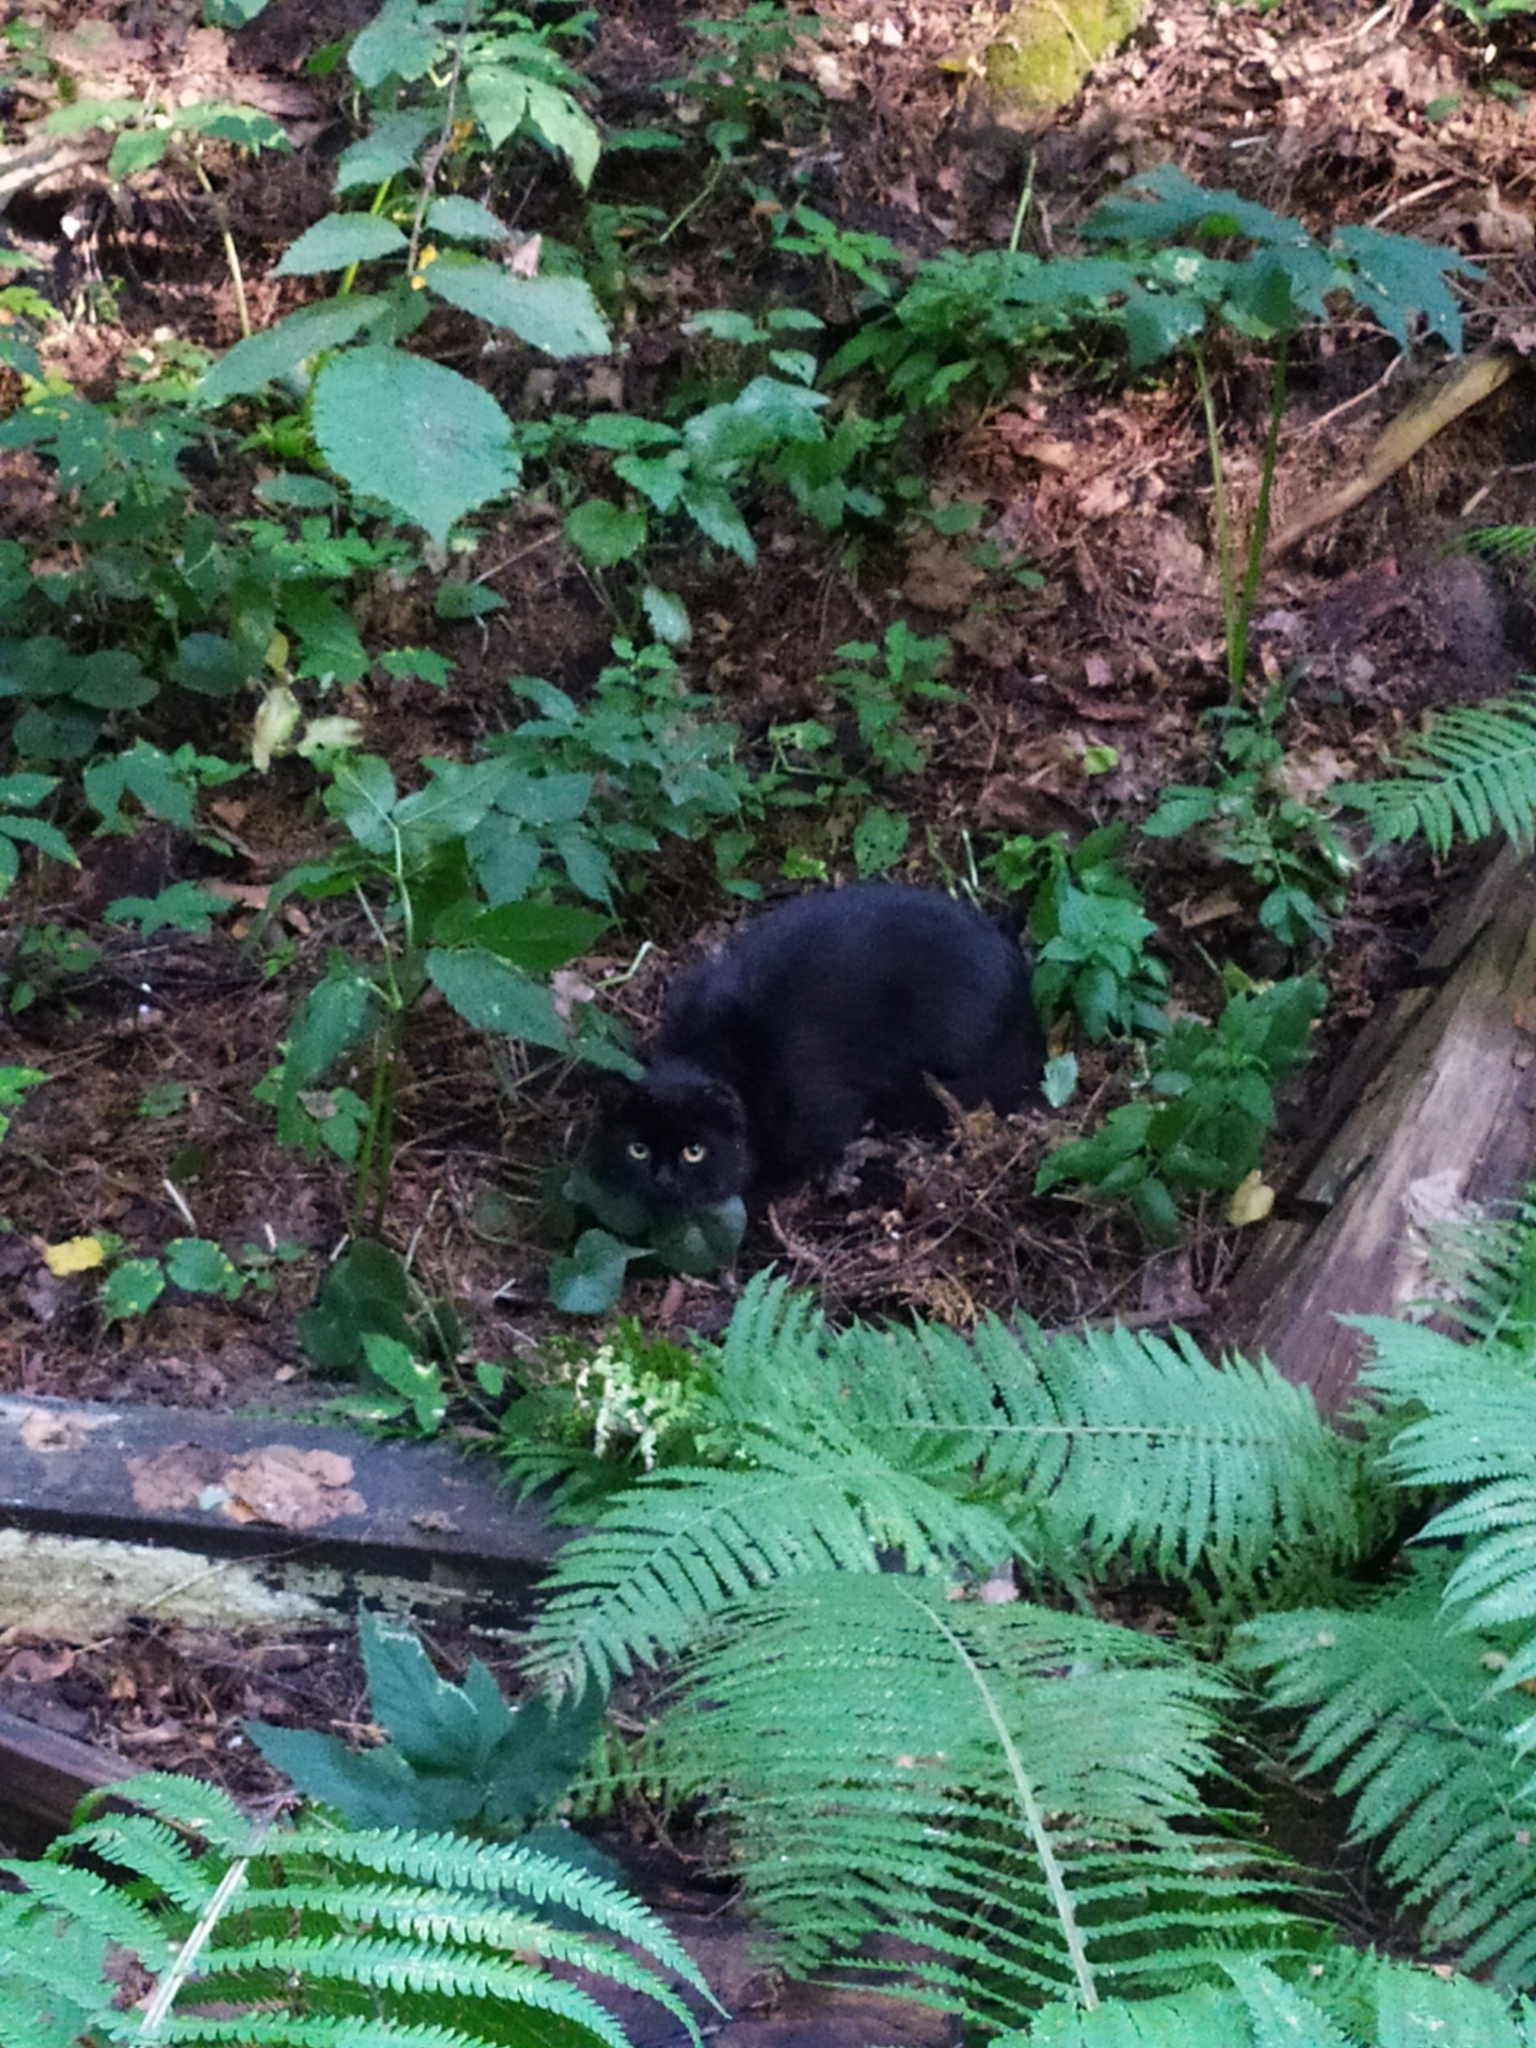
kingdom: Animalia
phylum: Chordata
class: Mammalia
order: Carnivora
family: Felidae
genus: Felis
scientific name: Felis catus
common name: Domestic cat
